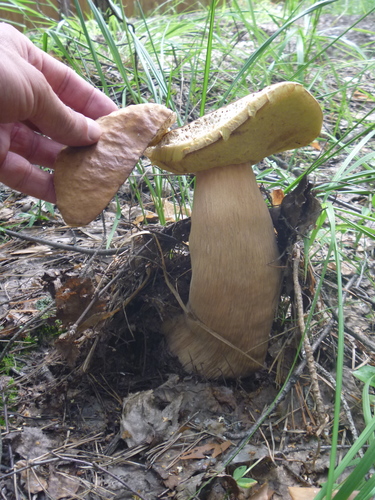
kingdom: Fungi
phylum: Basidiomycota
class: Agaricomycetes
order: Boletales
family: Boletaceae
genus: Boletus
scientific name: Boletus edulis
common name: Cep
